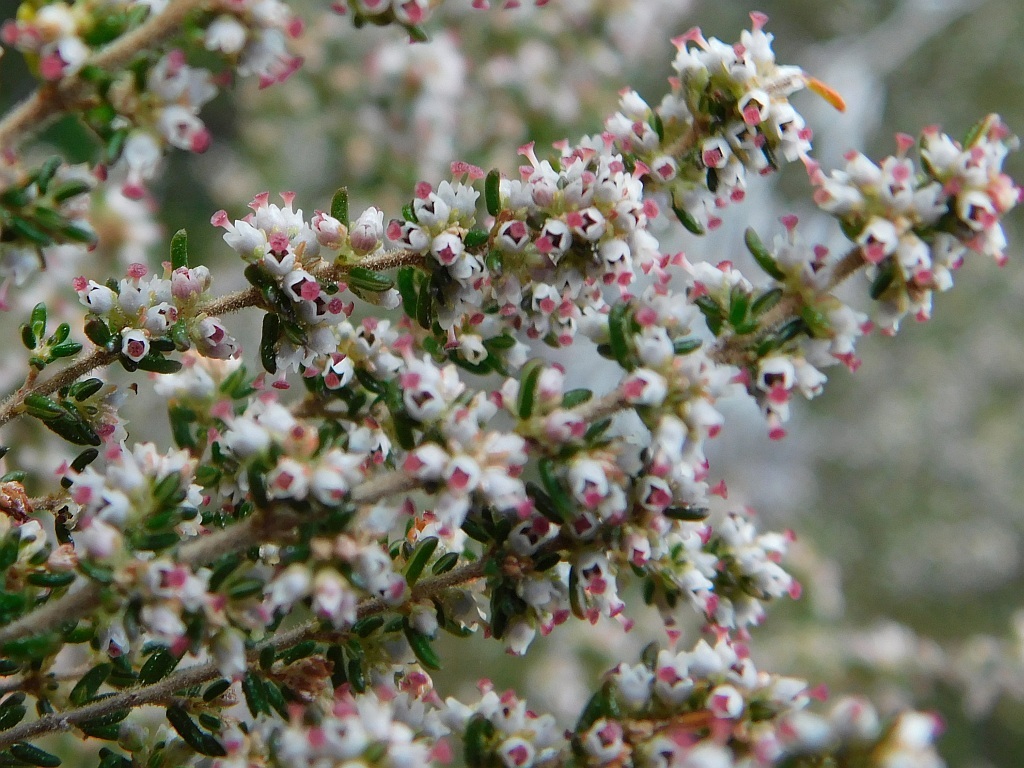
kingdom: Plantae
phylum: Tracheophyta
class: Magnoliopsida
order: Ericales
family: Ericaceae
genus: Erica
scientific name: Erica hispidula
